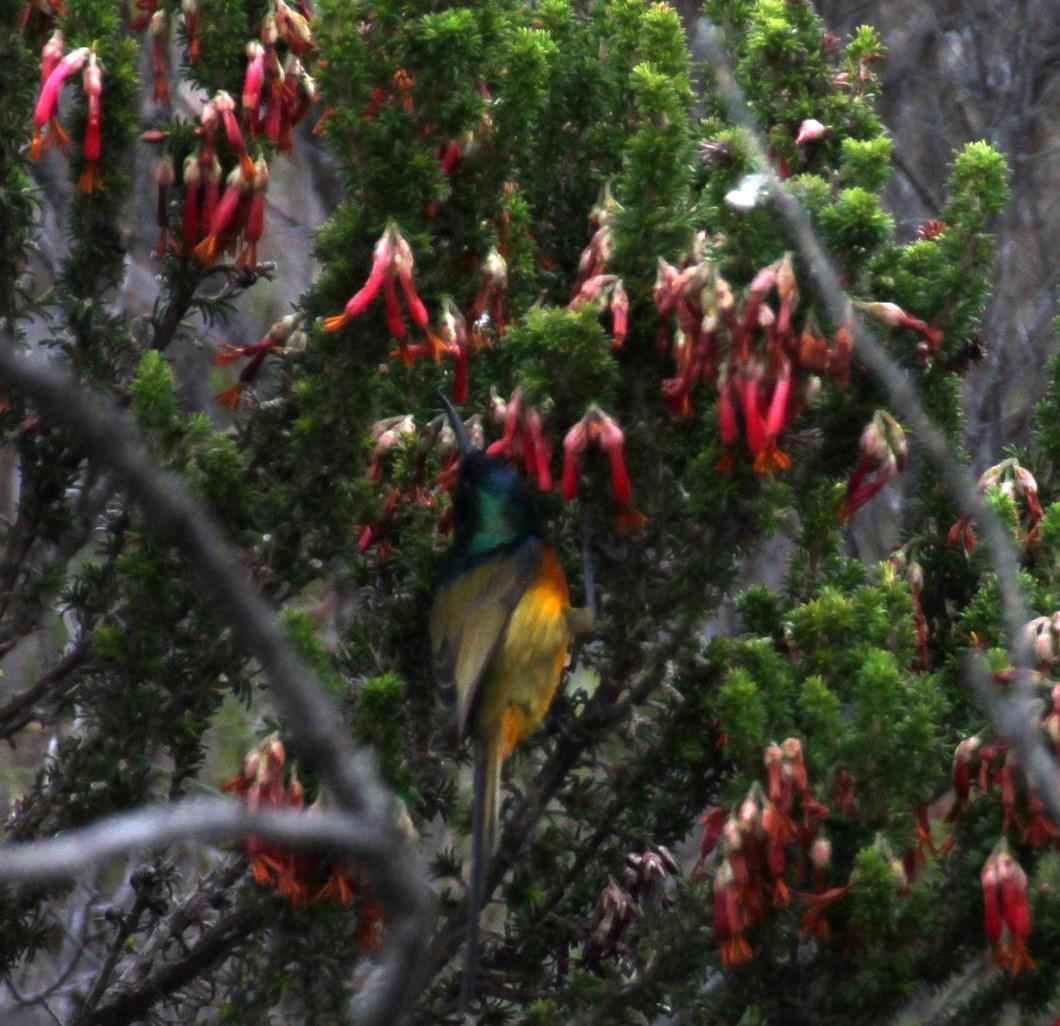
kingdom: Plantae
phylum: Tracheophyta
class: Magnoliopsida
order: Ericales
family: Ericaceae
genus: Erica
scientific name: Erica coccinea
